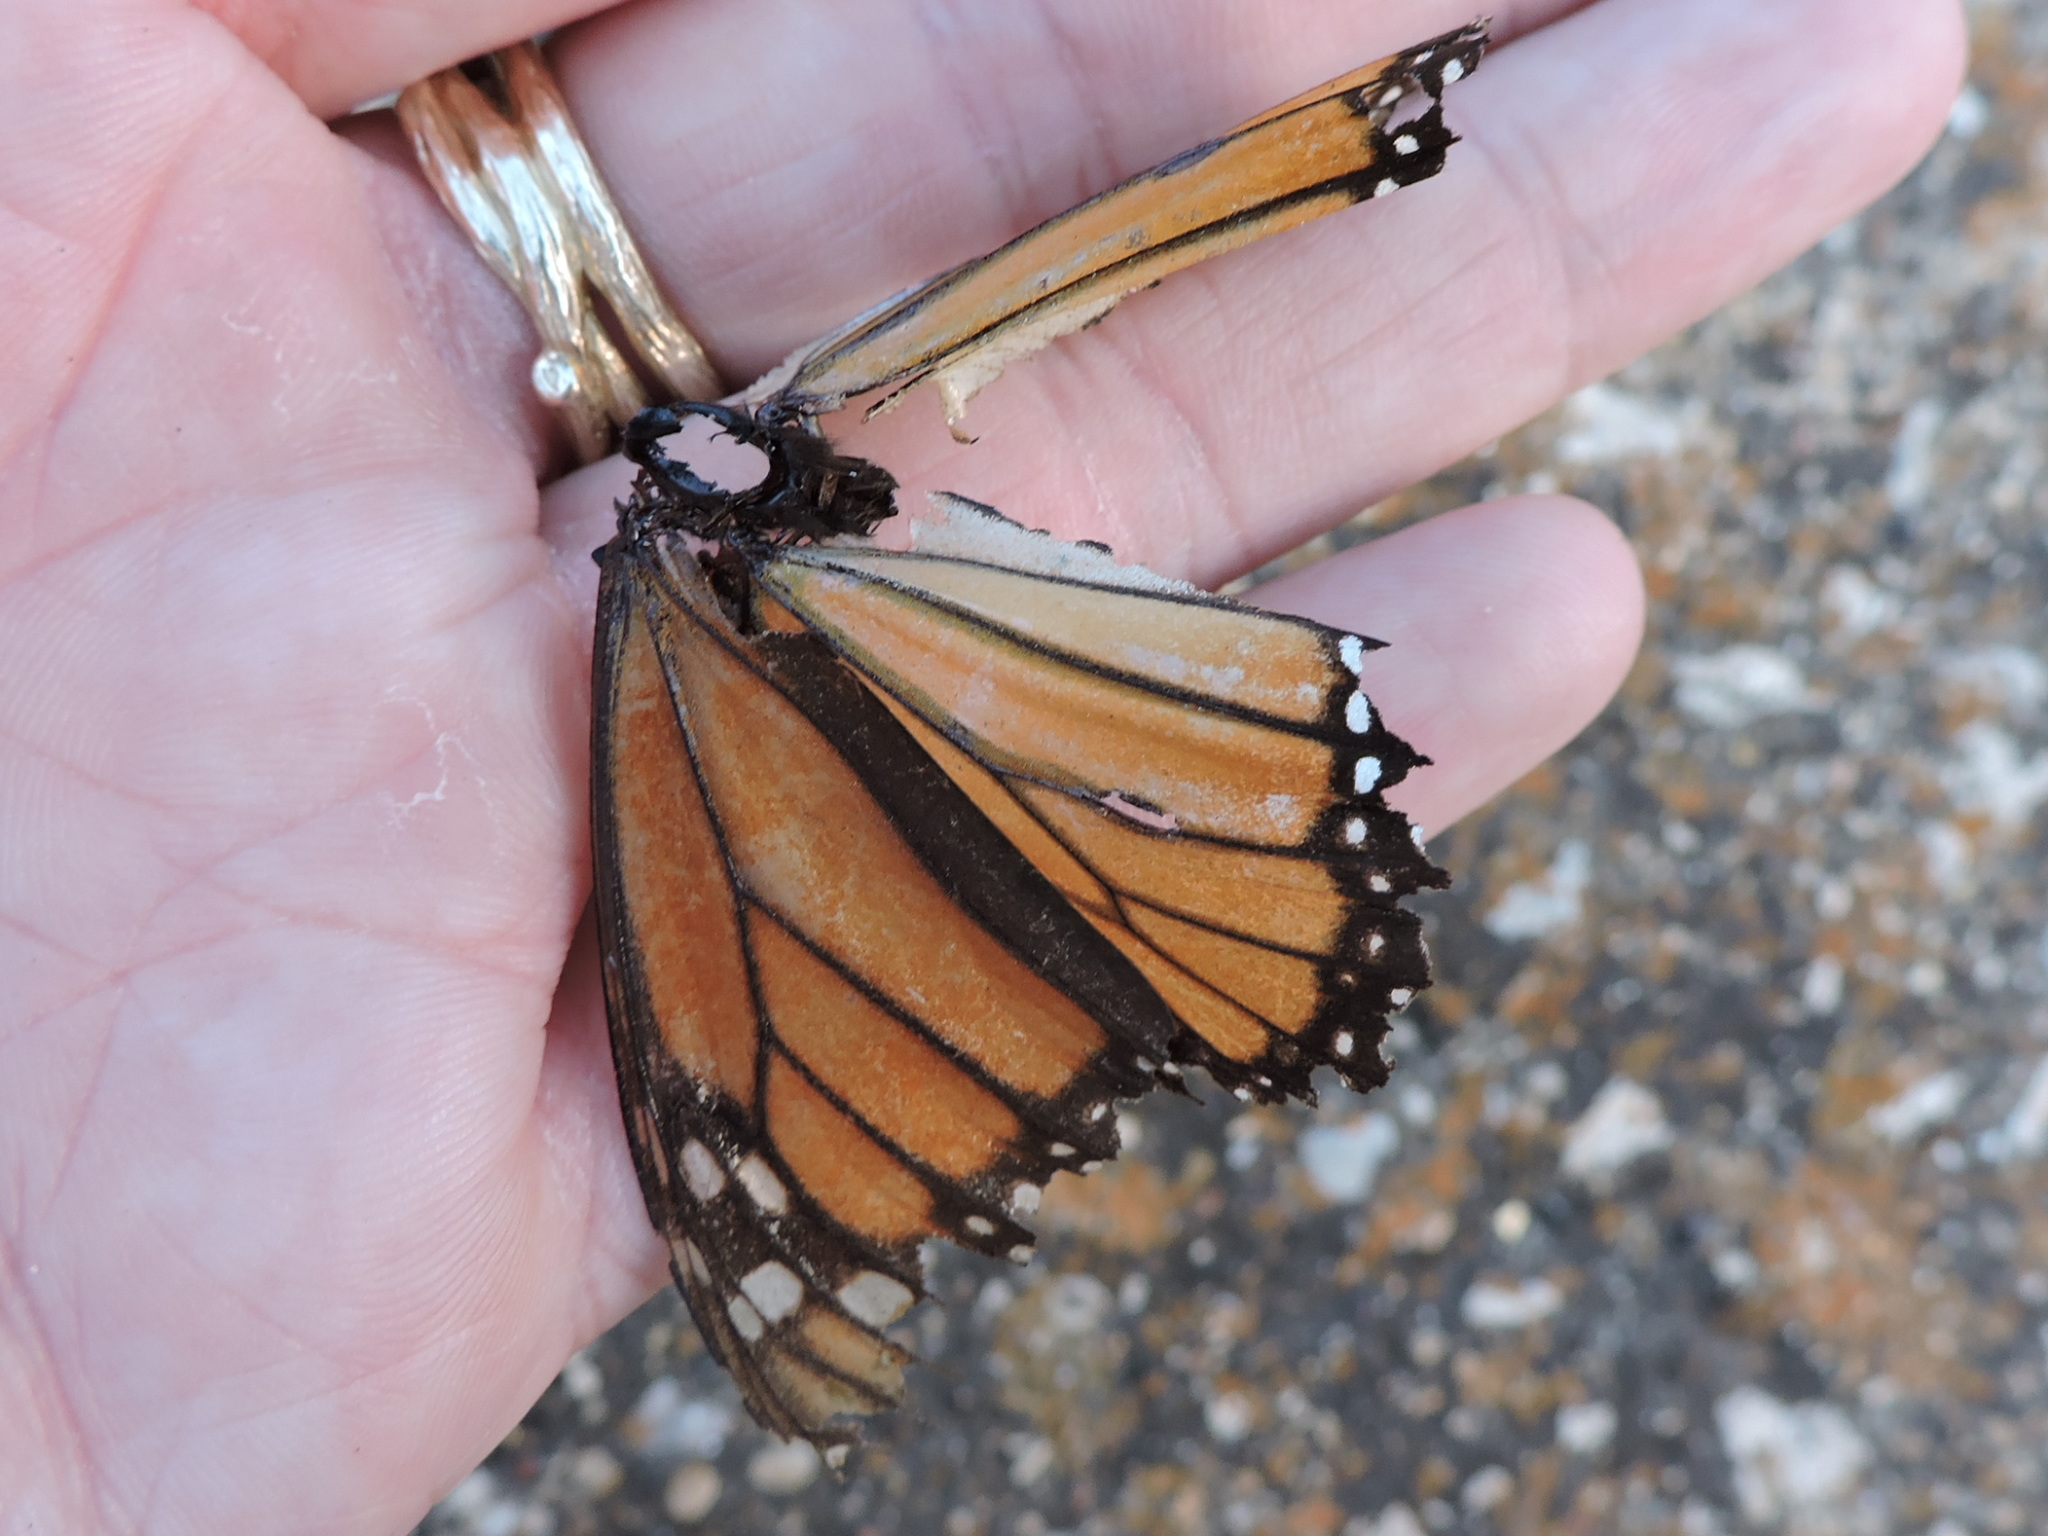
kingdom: Animalia
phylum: Arthropoda
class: Insecta
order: Lepidoptera
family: Nymphalidae
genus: Danaus
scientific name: Danaus plexippus
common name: Monarch
